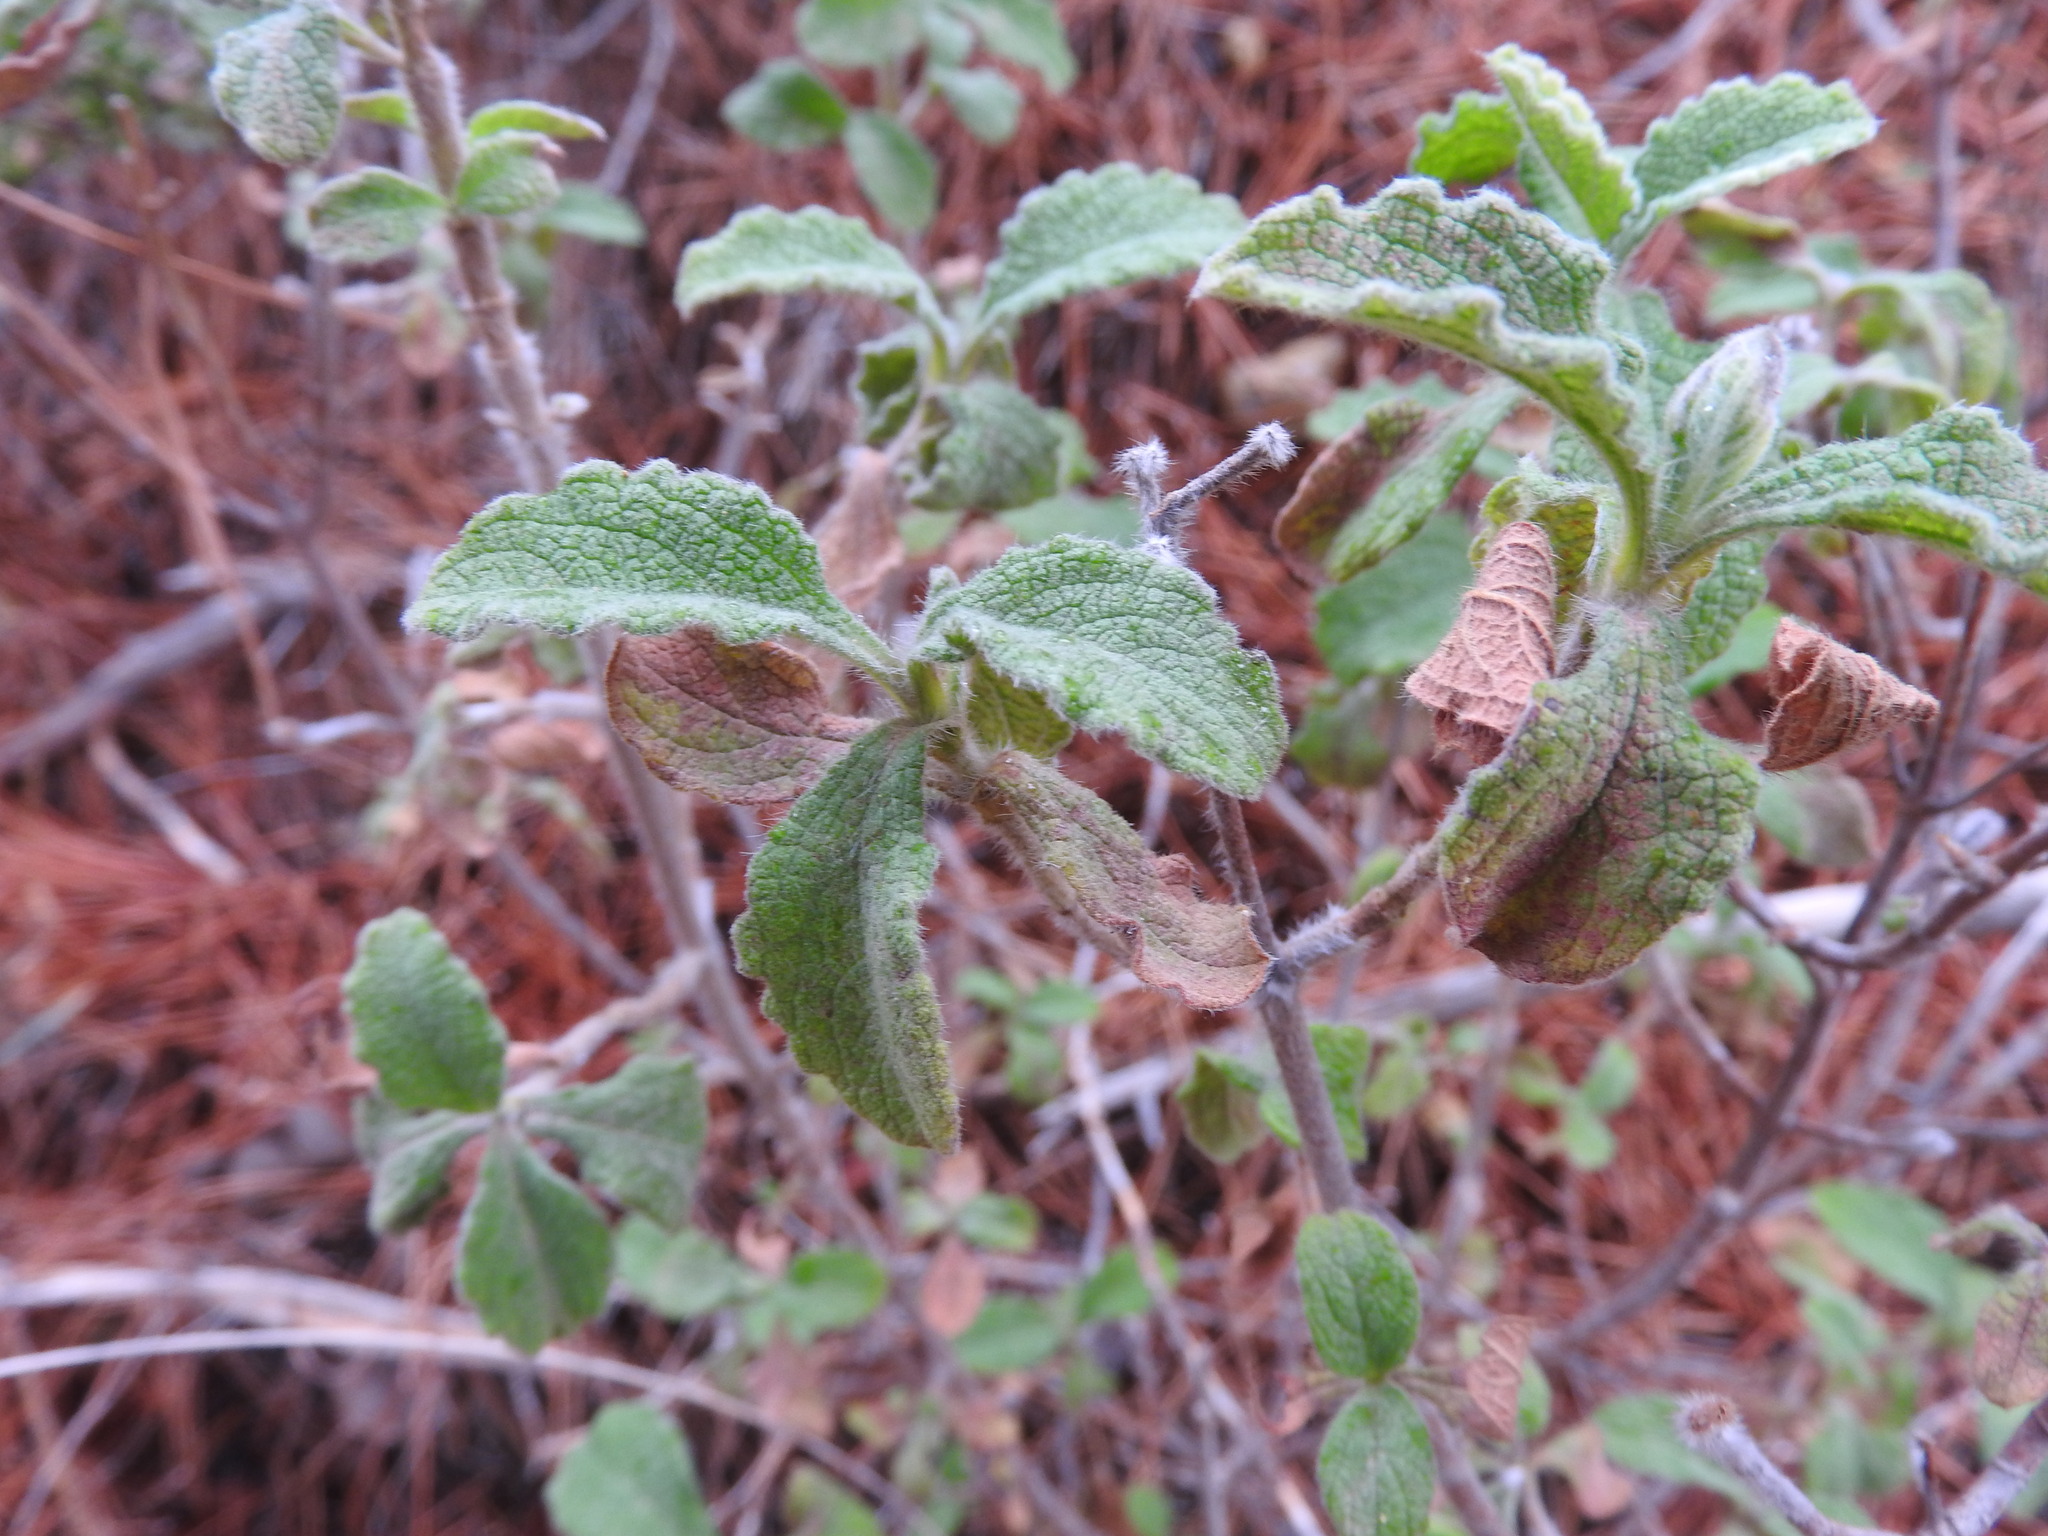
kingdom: Plantae
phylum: Tracheophyta
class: Magnoliopsida
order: Malvales
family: Cistaceae
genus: Cistus
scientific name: Cistus creticus
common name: Cretan rockrose
